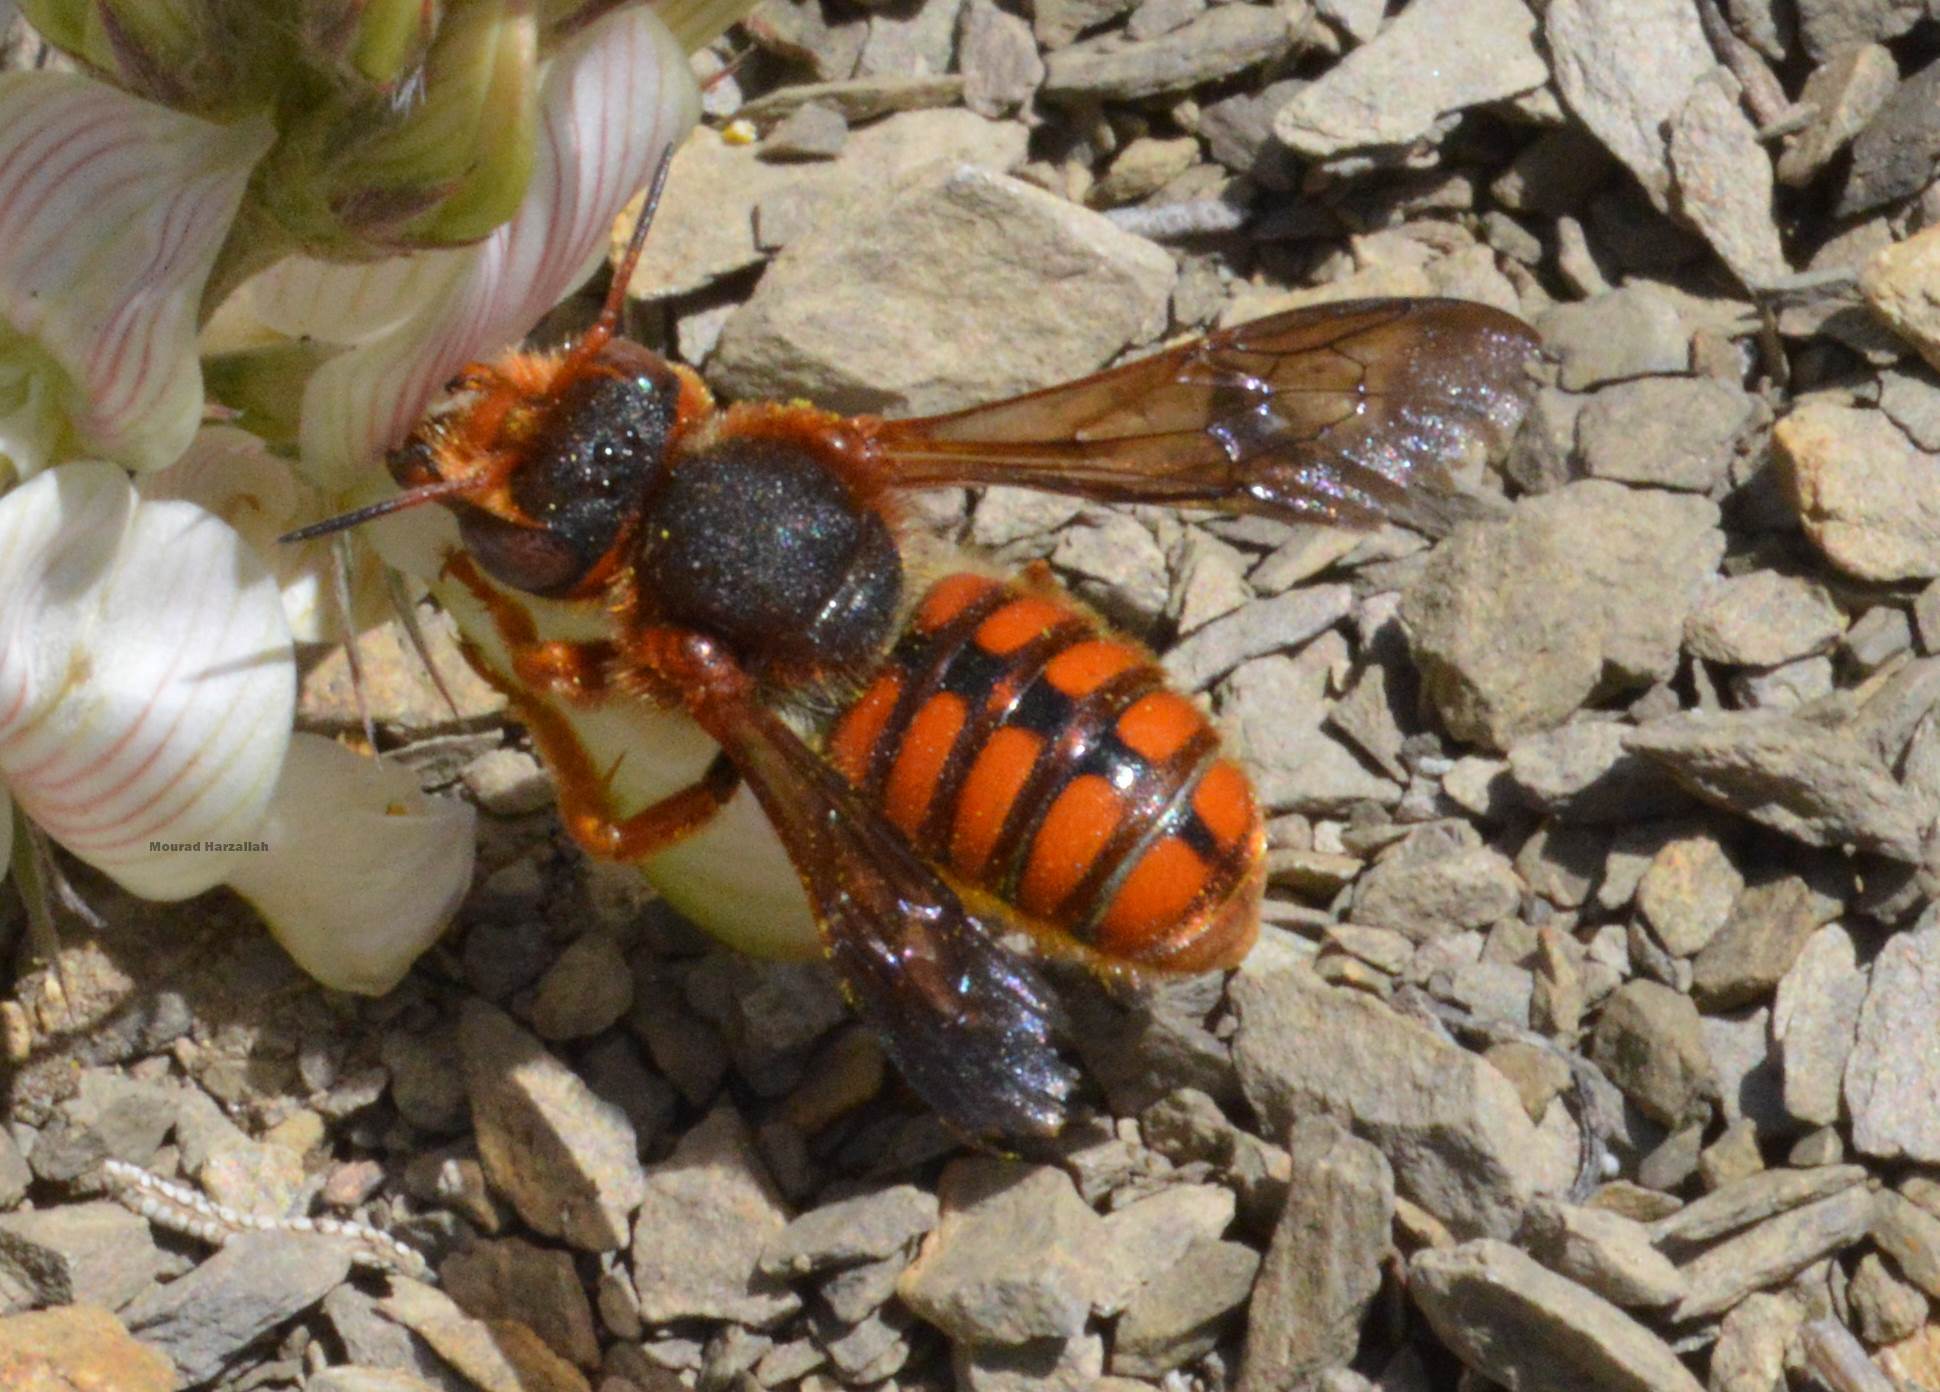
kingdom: Animalia
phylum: Arthropoda
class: Insecta
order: Hymenoptera
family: Megachilidae
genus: Rhodanthidium
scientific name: Rhodanthidium sticticum
